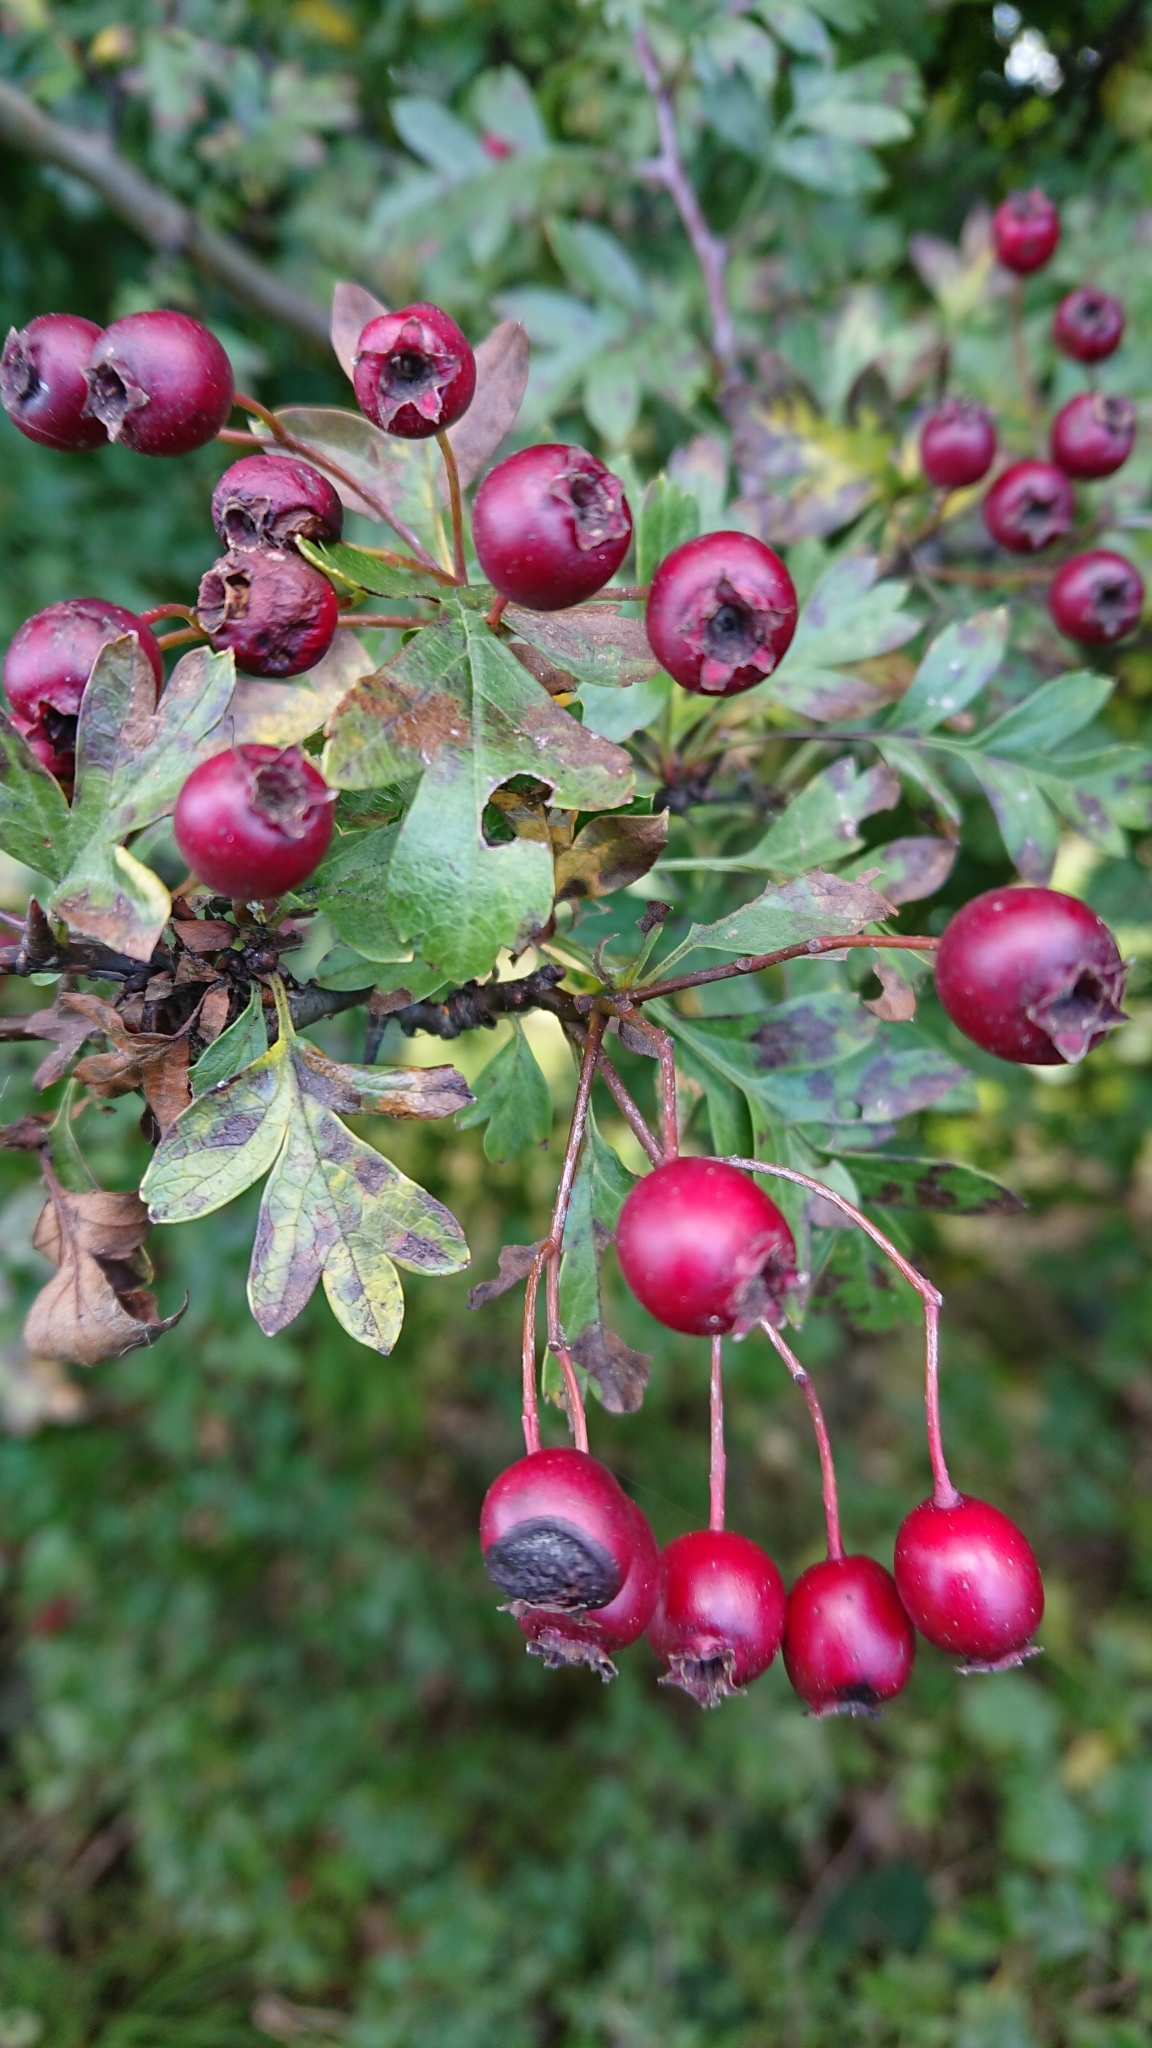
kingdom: Plantae
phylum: Tracheophyta
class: Magnoliopsida
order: Rosales
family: Rosaceae
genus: Crataegus
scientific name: Crataegus monogyna
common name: Hawthorn
